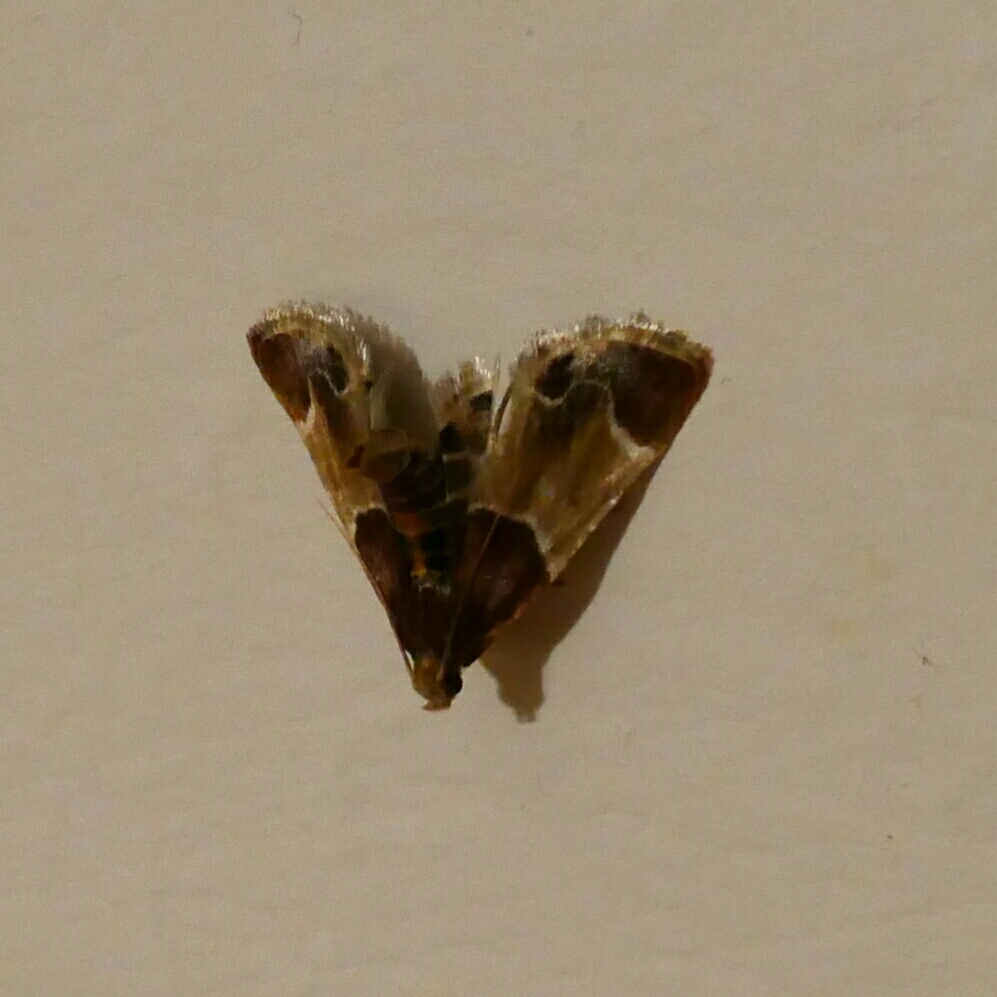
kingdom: Animalia
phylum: Arthropoda
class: Insecta
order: Lepidoptera
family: Pyralidae
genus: Pyralis
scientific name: Pyralis farinalis
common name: Meal moth
